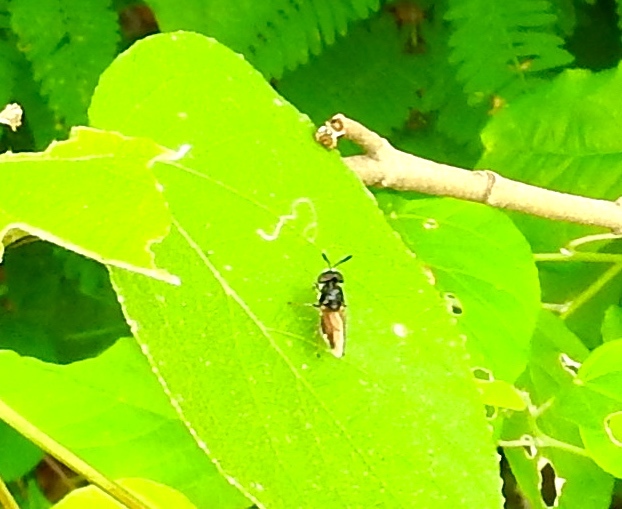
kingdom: Animalia
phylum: Arthropoda
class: Insecta
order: Diptera
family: Stratiomyidae
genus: Hoplitimyia
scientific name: Hoplitimyia
